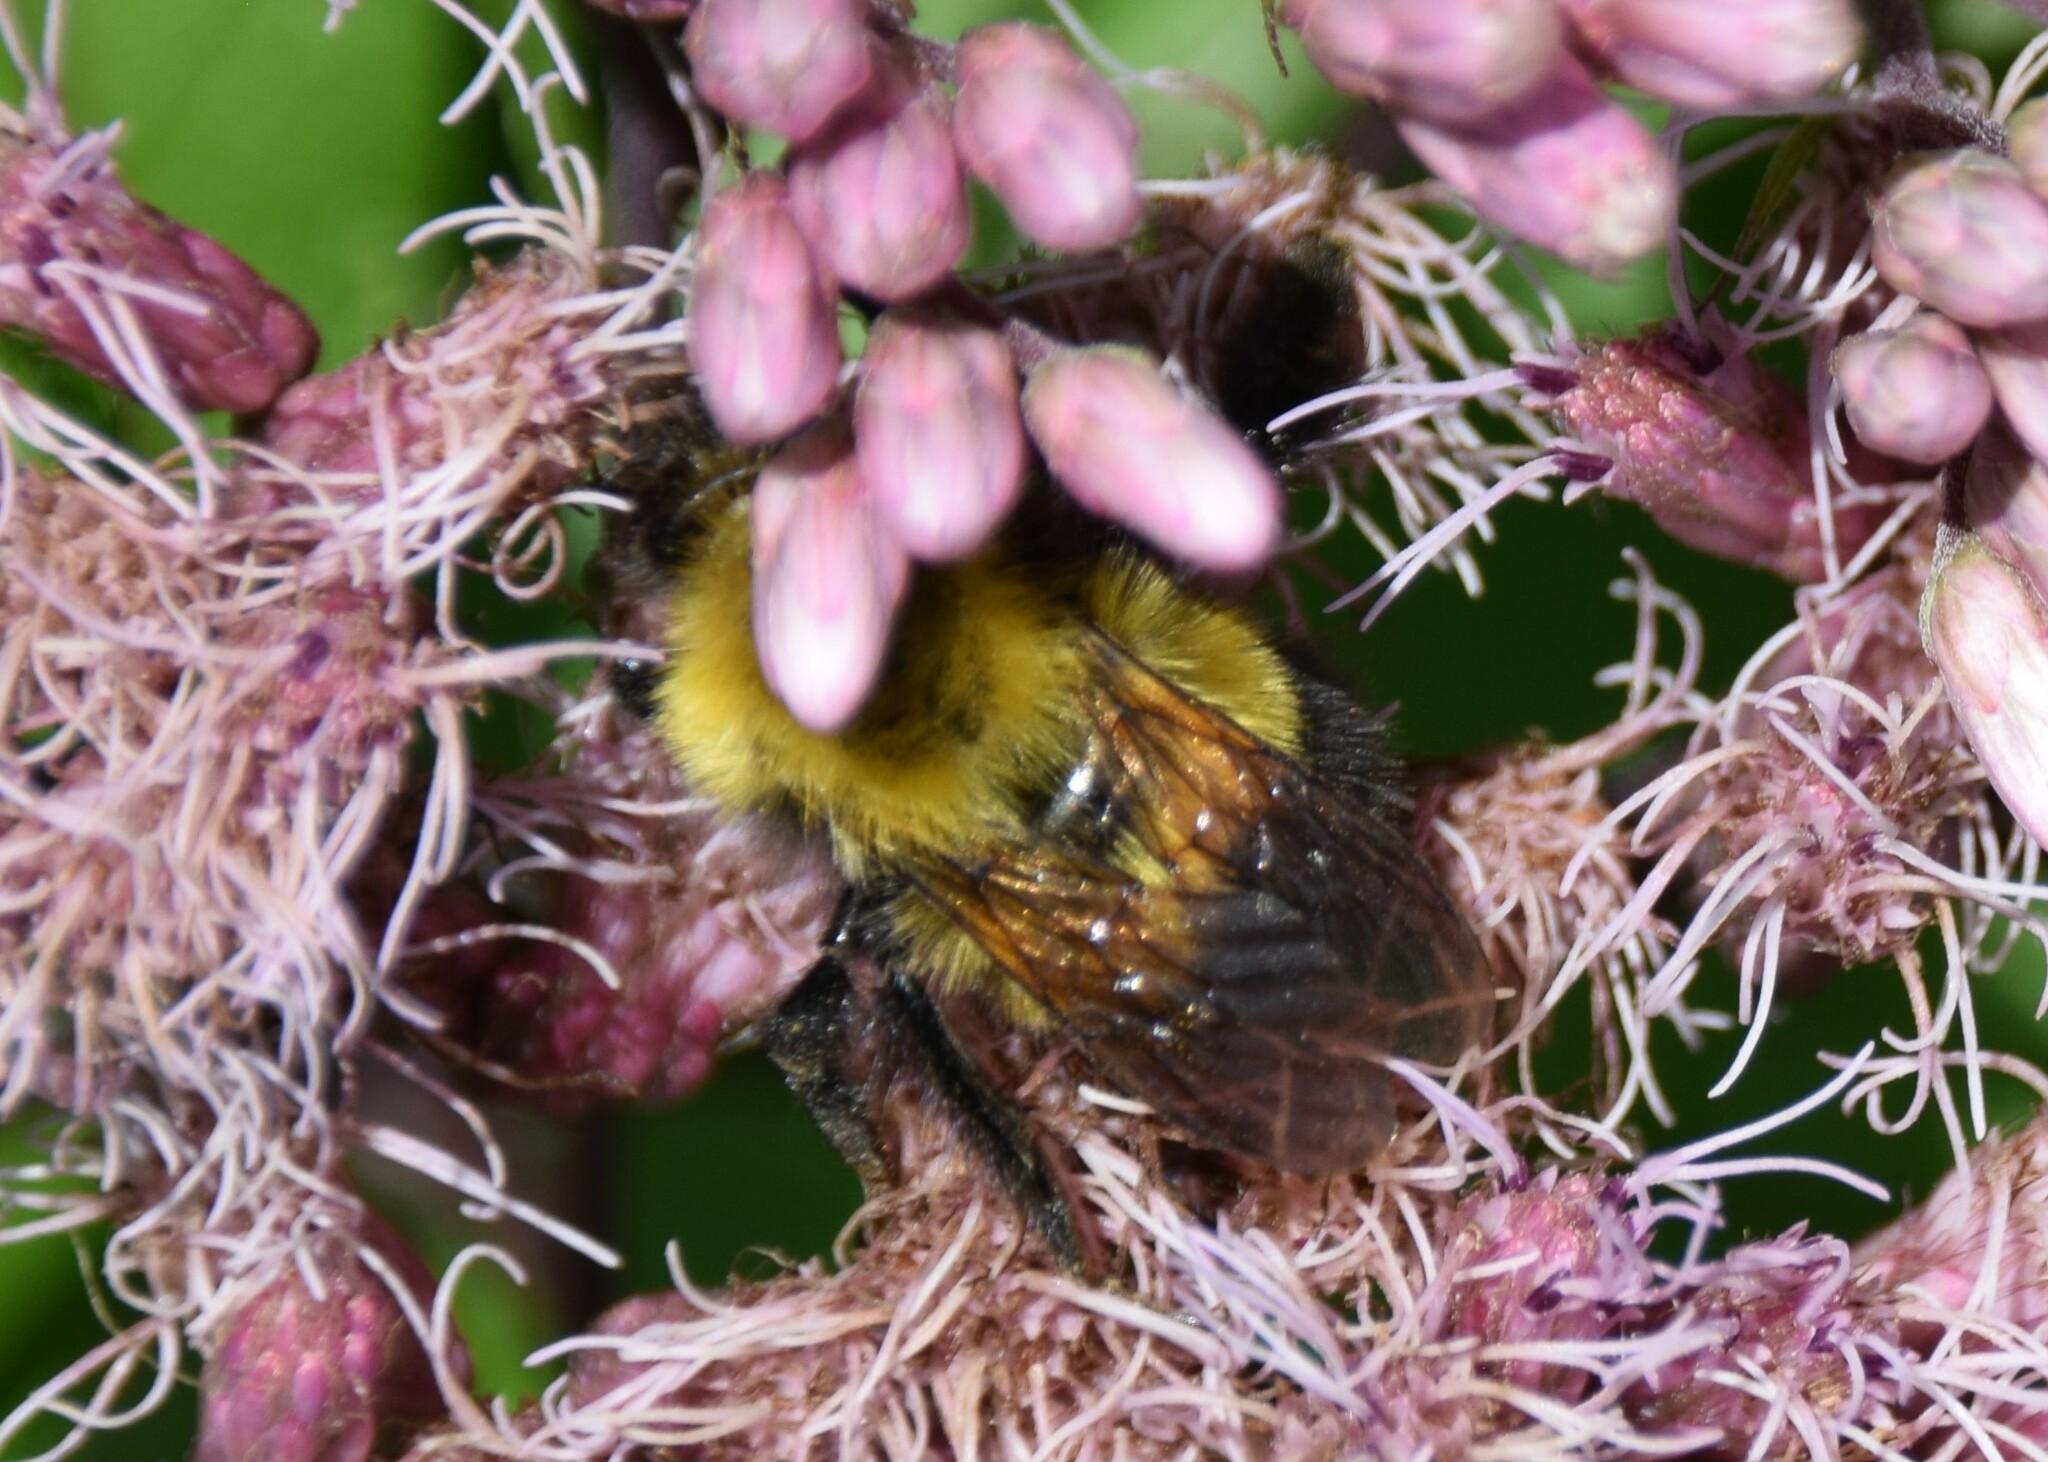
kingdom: Animalia
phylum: Arthropoda
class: Insecta
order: Hymenoptera
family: Apidae
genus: Bombus
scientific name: Bombus perplexus
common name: Confusing bumble bee
